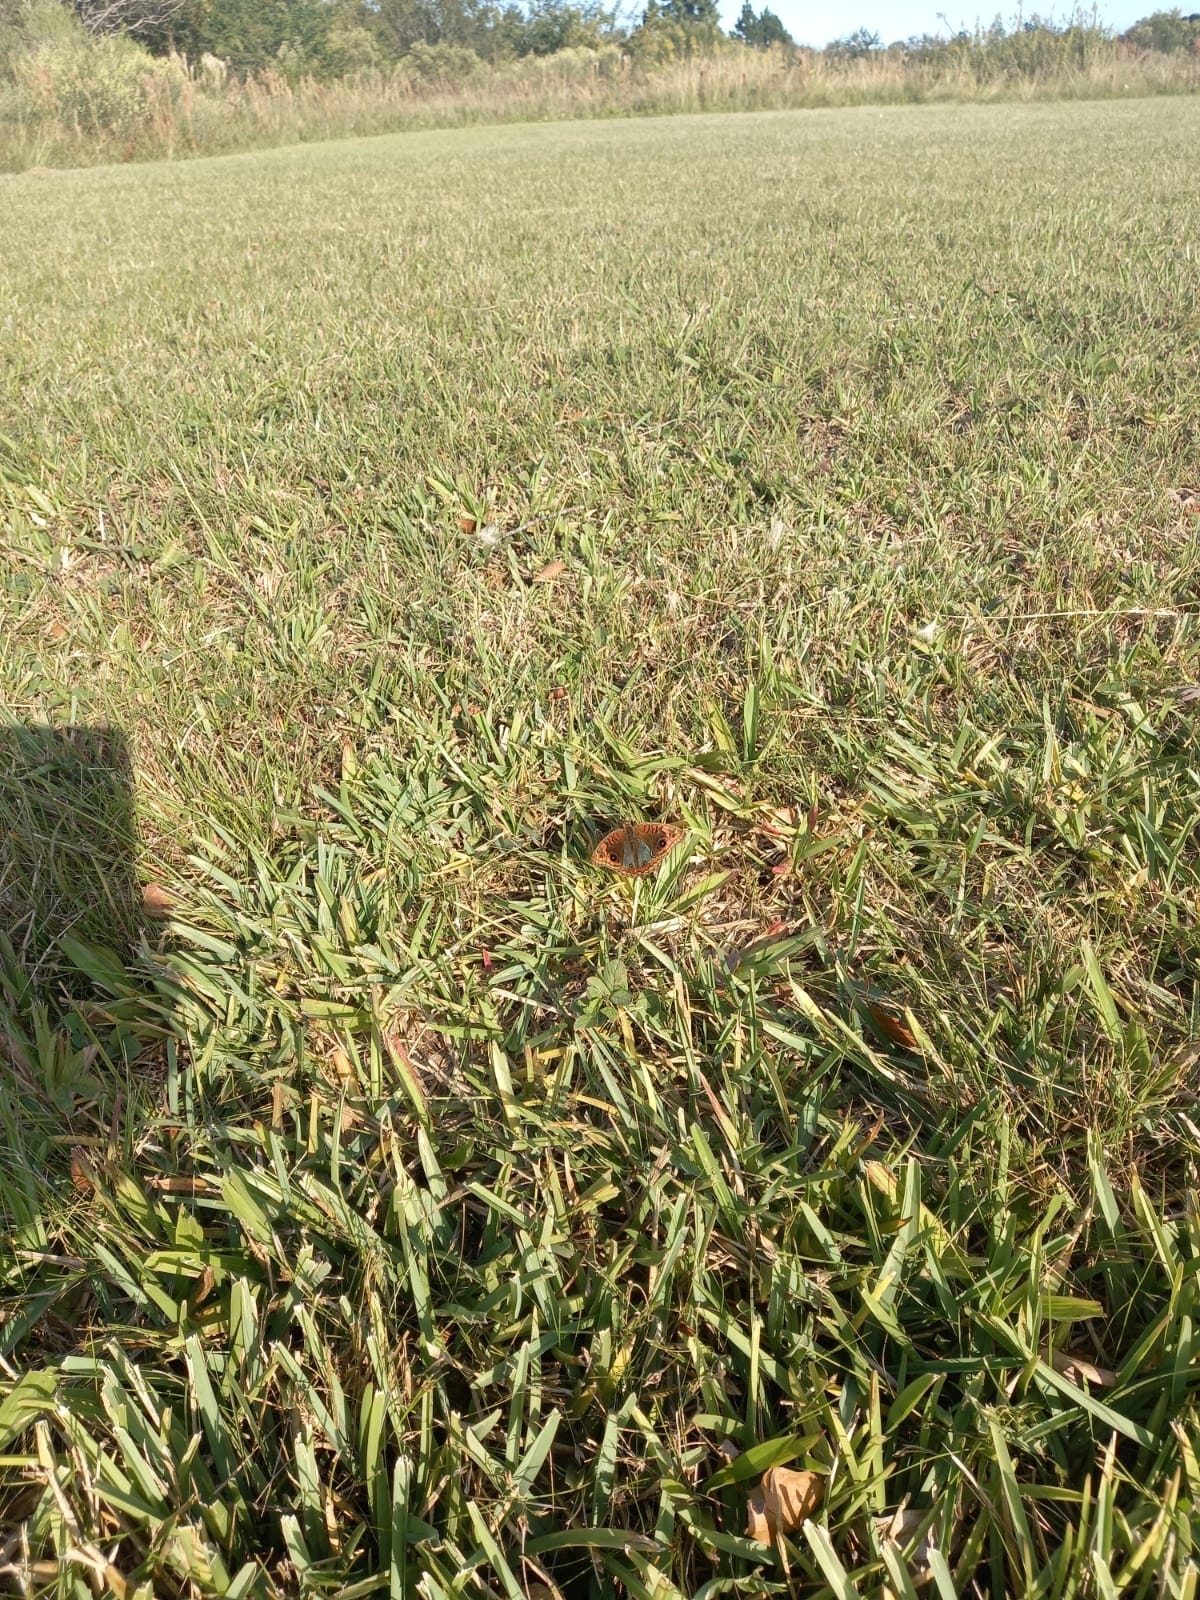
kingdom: Animalia
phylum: Arthropoda
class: Insecta
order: Lepidoptera
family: Nymphalidae
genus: Junonia
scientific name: Junonia lavinia
